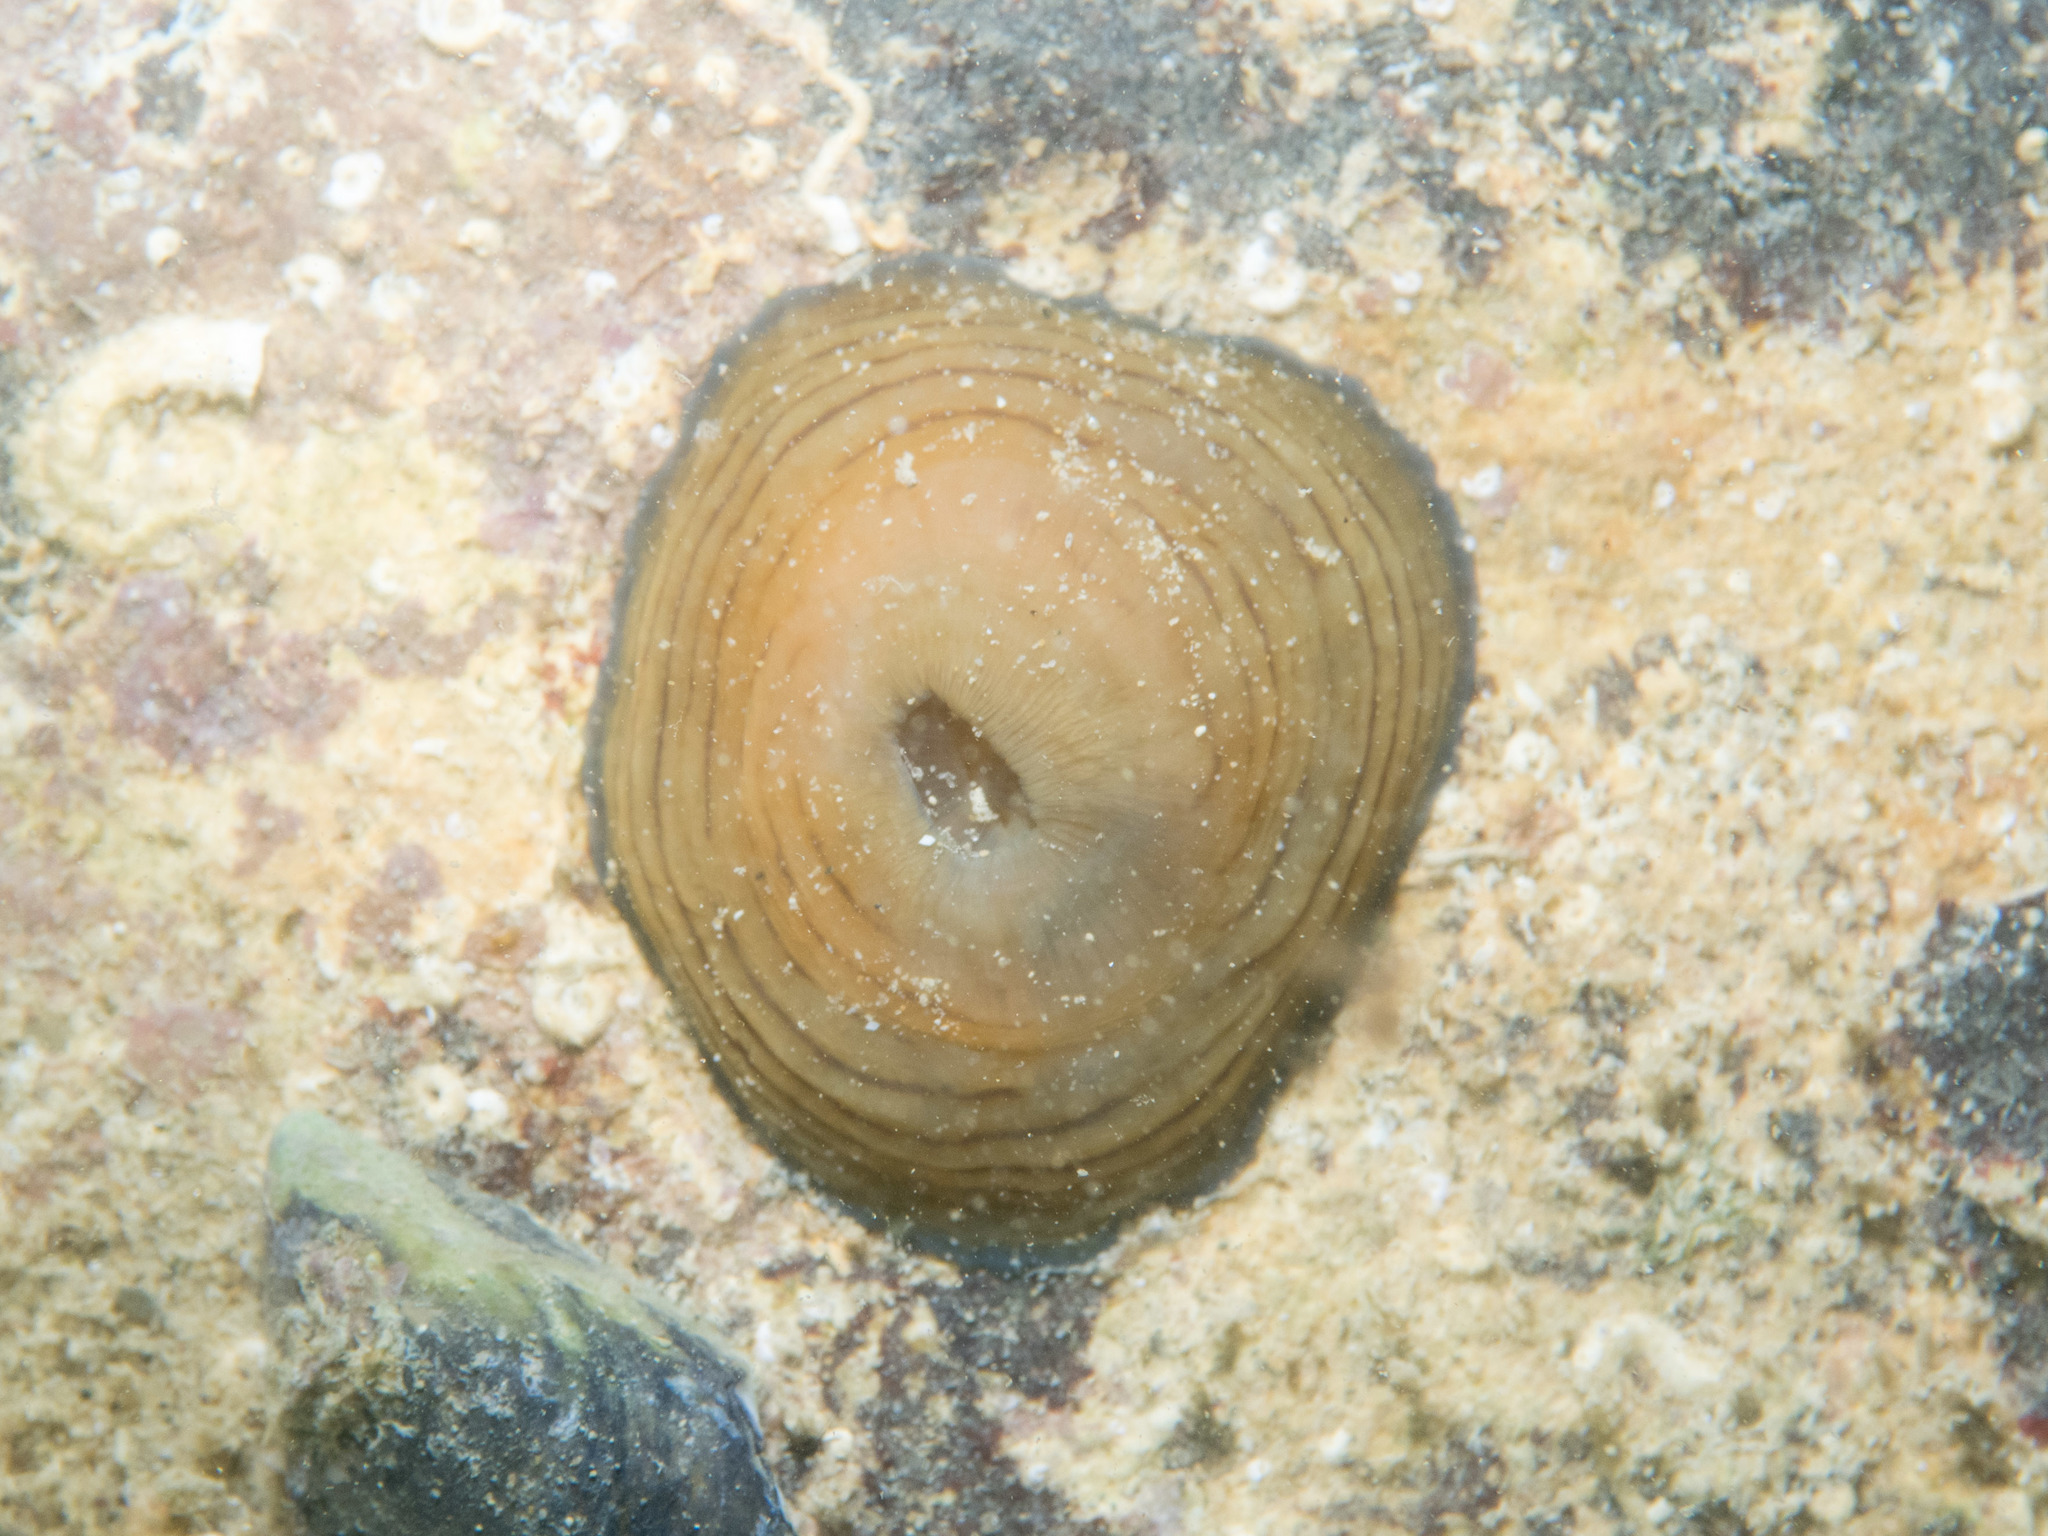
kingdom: Animalia
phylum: Cnidaria
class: Anthozoa
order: Actiniaria
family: Actiniidae
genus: Actinia
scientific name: Actinia cari
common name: Green sea anemone
